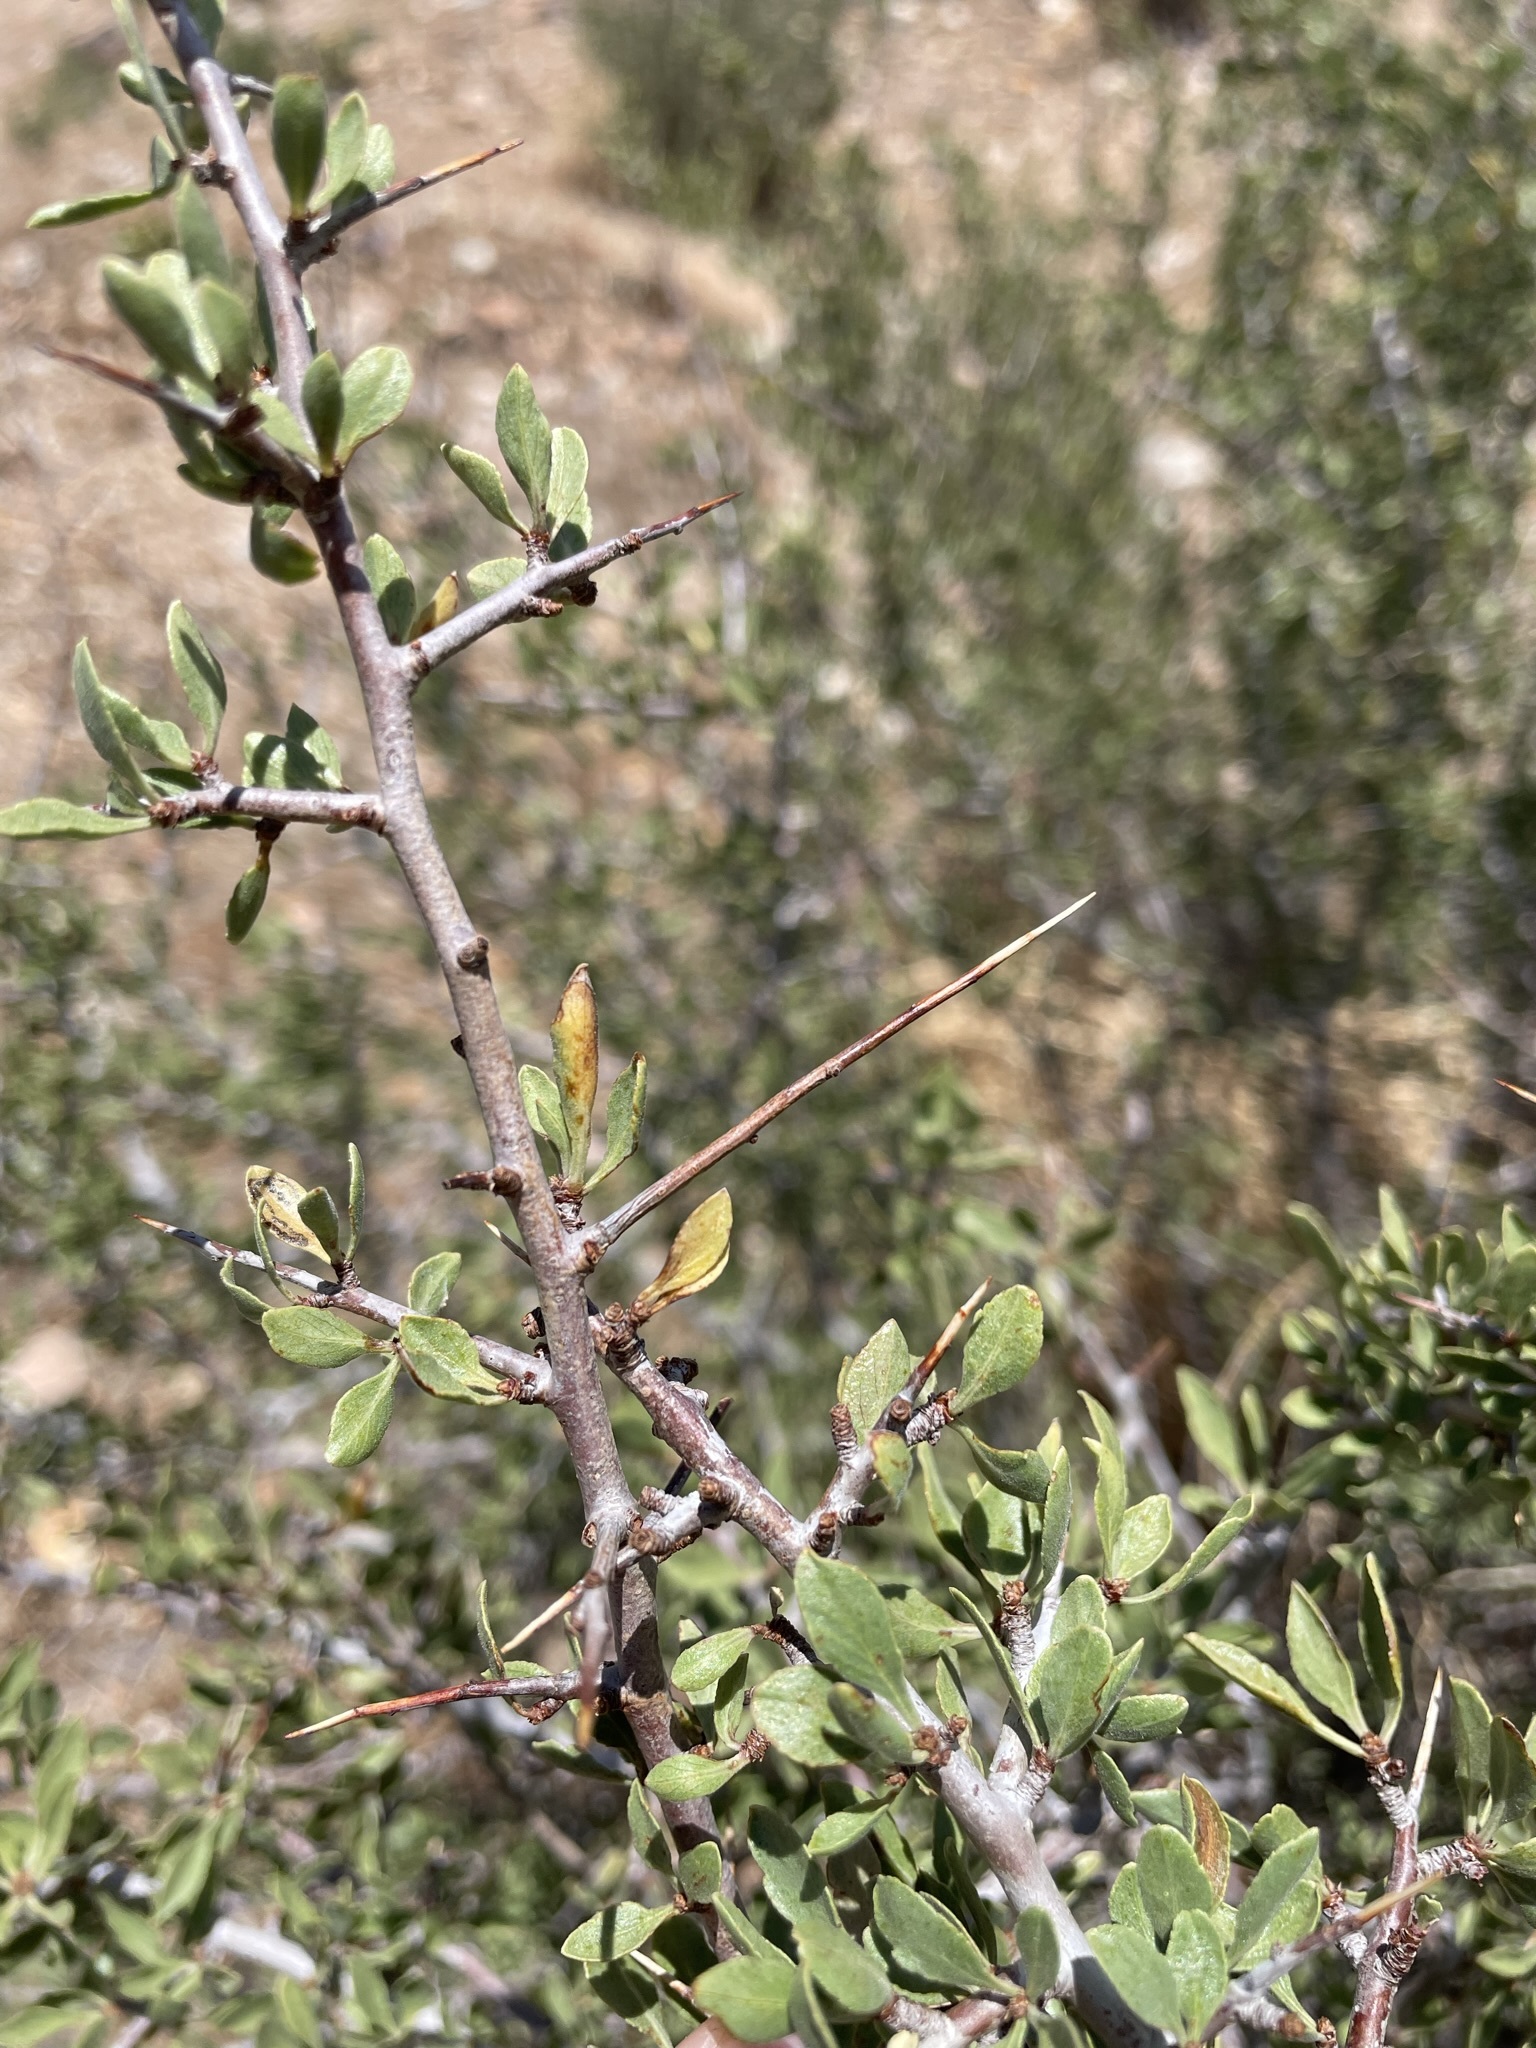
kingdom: Plantae
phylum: Tracheophyta
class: Magnoliopsida
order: Rosales
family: Rosaceae
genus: Prunus
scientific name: Prunus andersonii
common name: Desert peach
